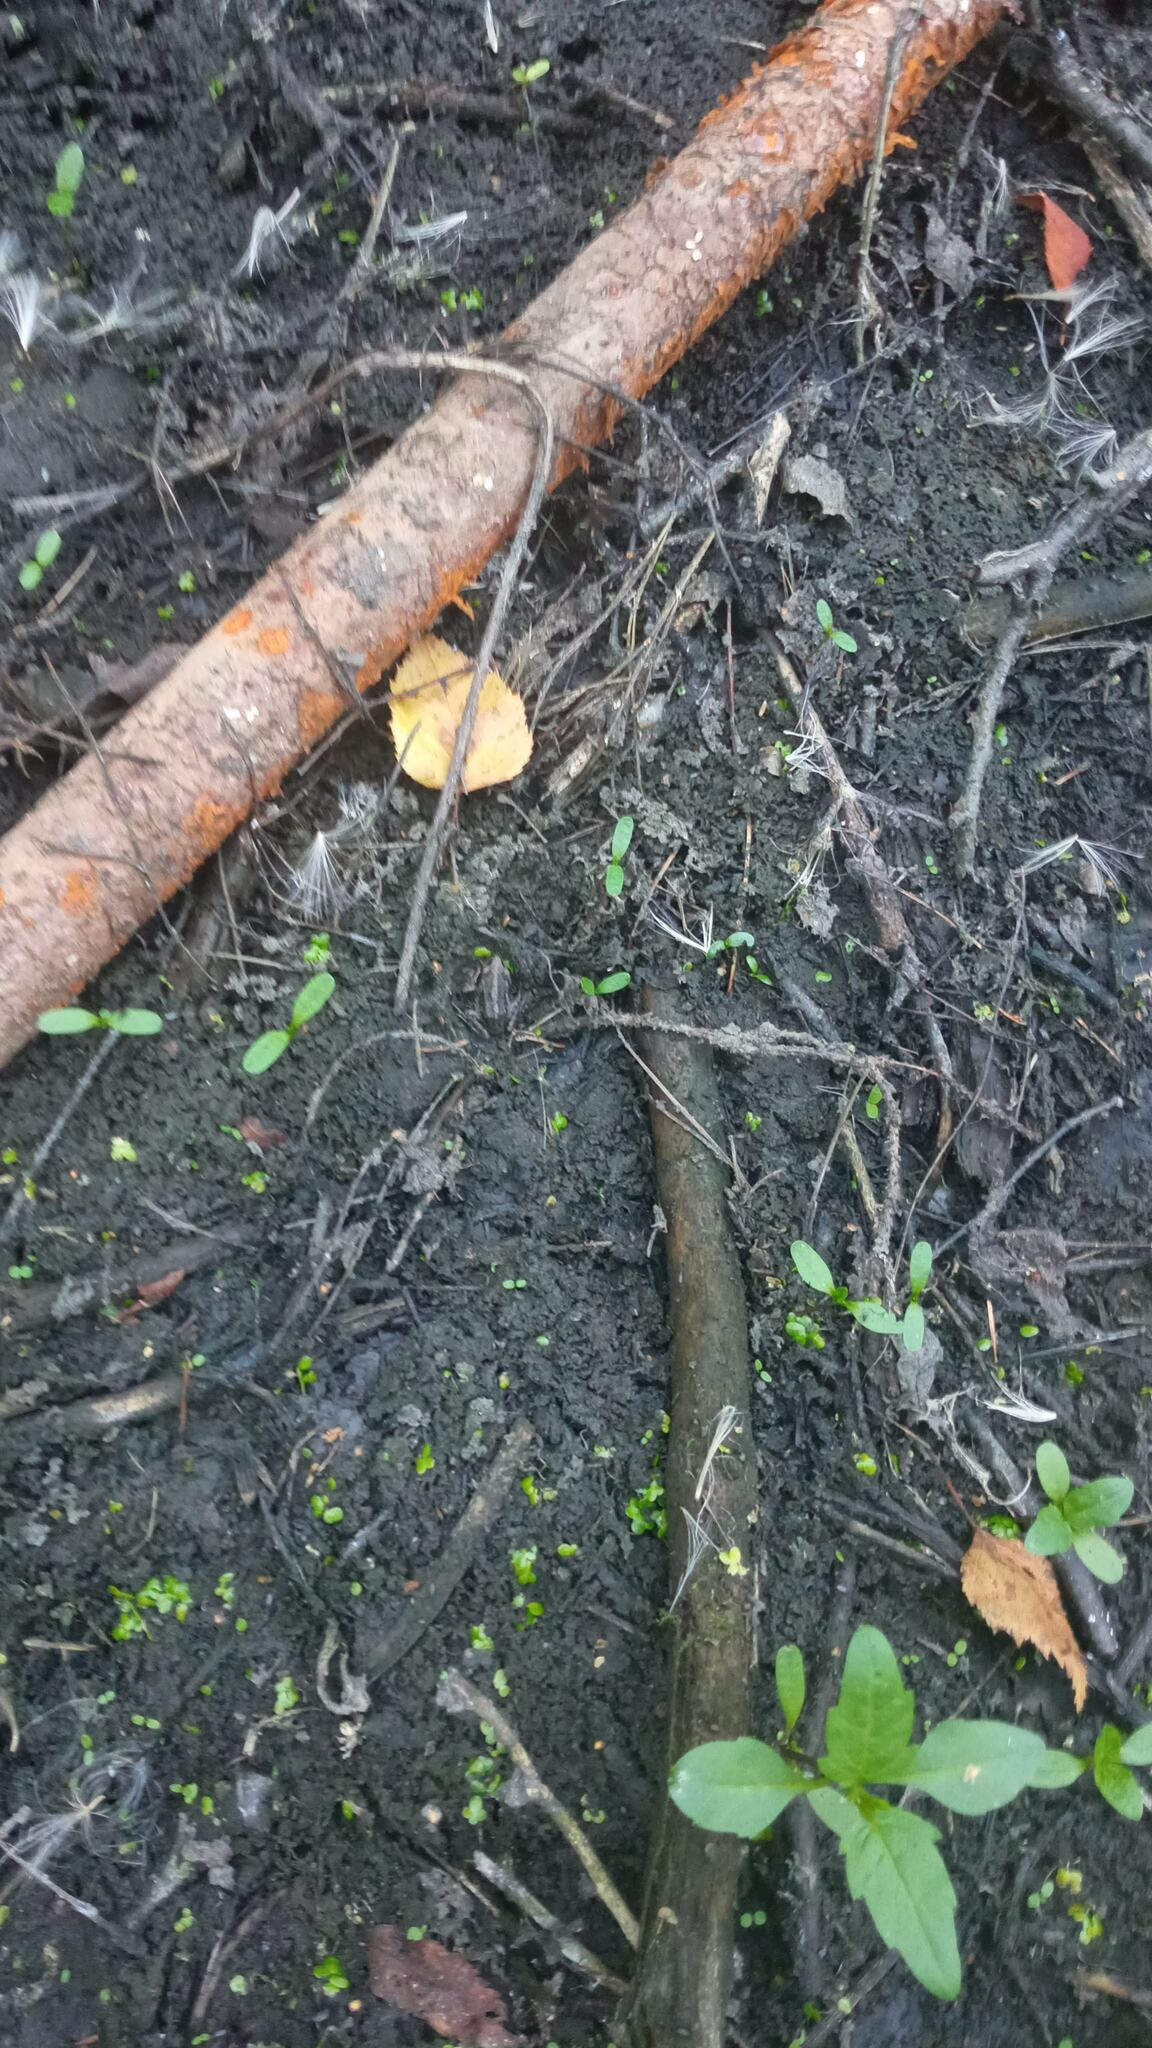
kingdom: Animalia
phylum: Chordata
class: Amphibia
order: Anura
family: Ranidae
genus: Rana
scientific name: Rana arvalis
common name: Moor frog
